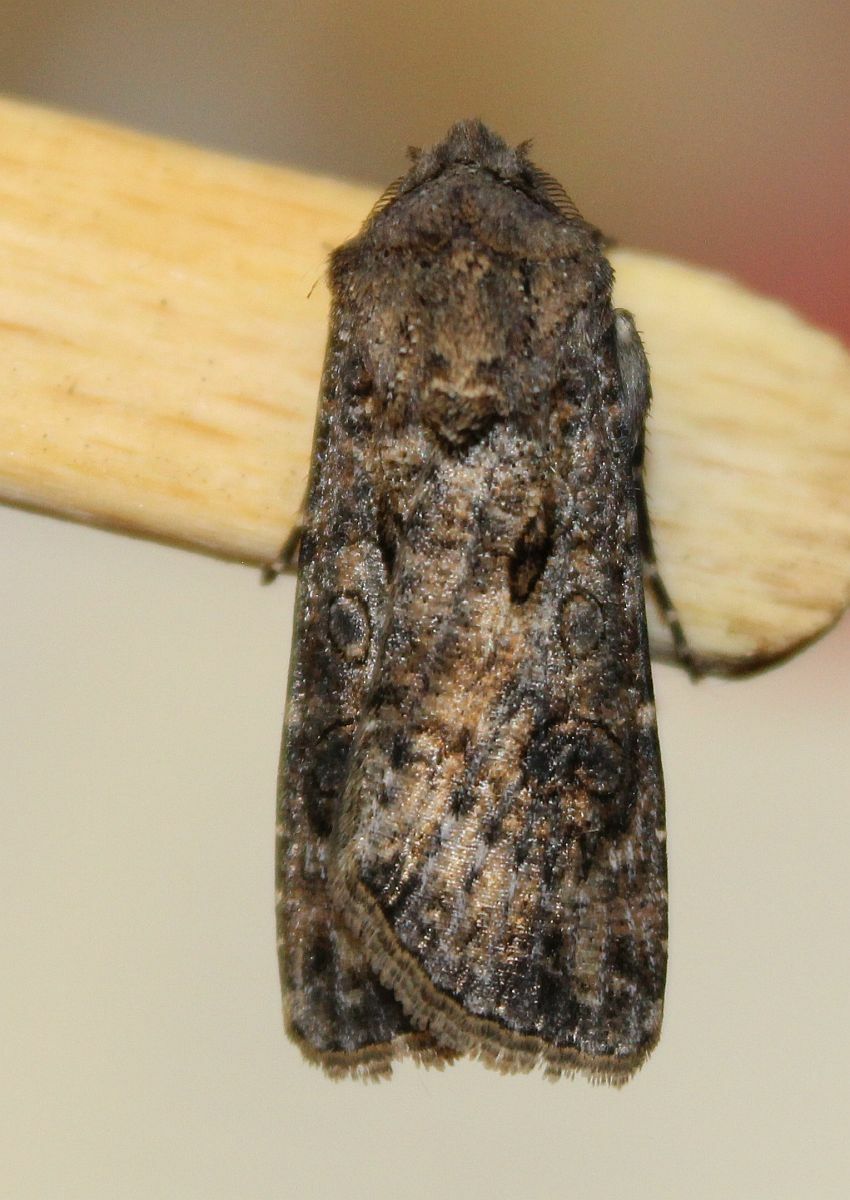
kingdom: Animalia
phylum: Arthropoda
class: Insecta
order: Lepidoptera
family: Noctuidae
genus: Agrotis
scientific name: Agrotis segetum
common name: Turnip moth
